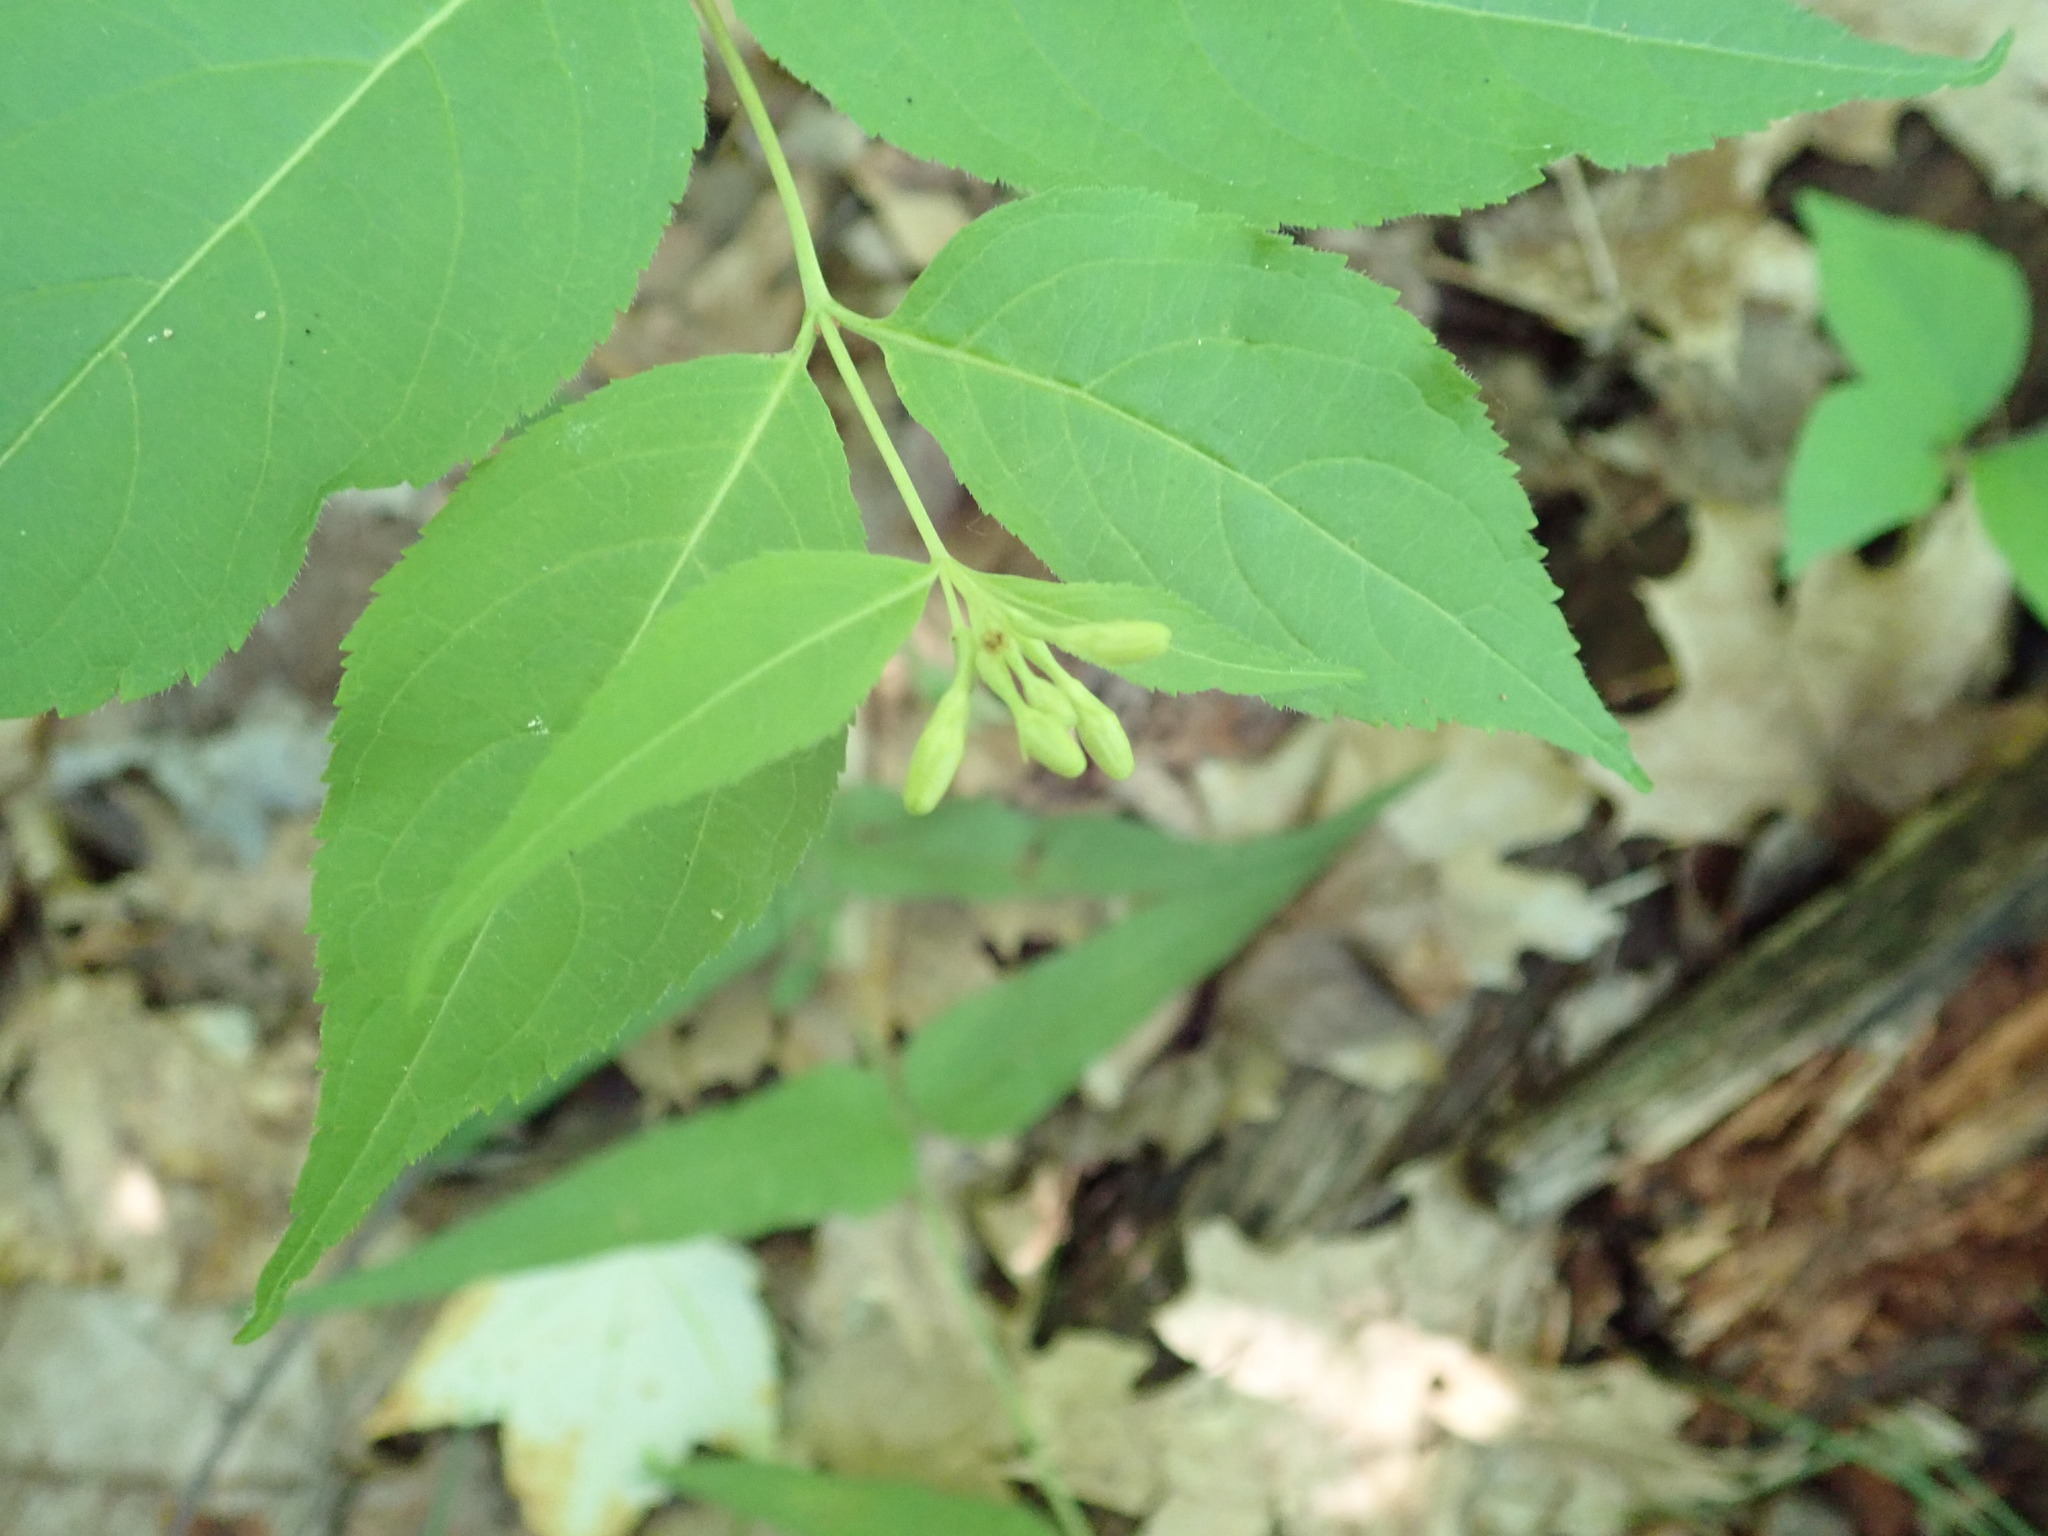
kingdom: Plantae
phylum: Tracheophyta
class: Magnoliopsida
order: Dipsacales
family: Caprifoliaceae
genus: Diervilla
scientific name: Diervilla lonicera
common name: Bush-honeysuckle
